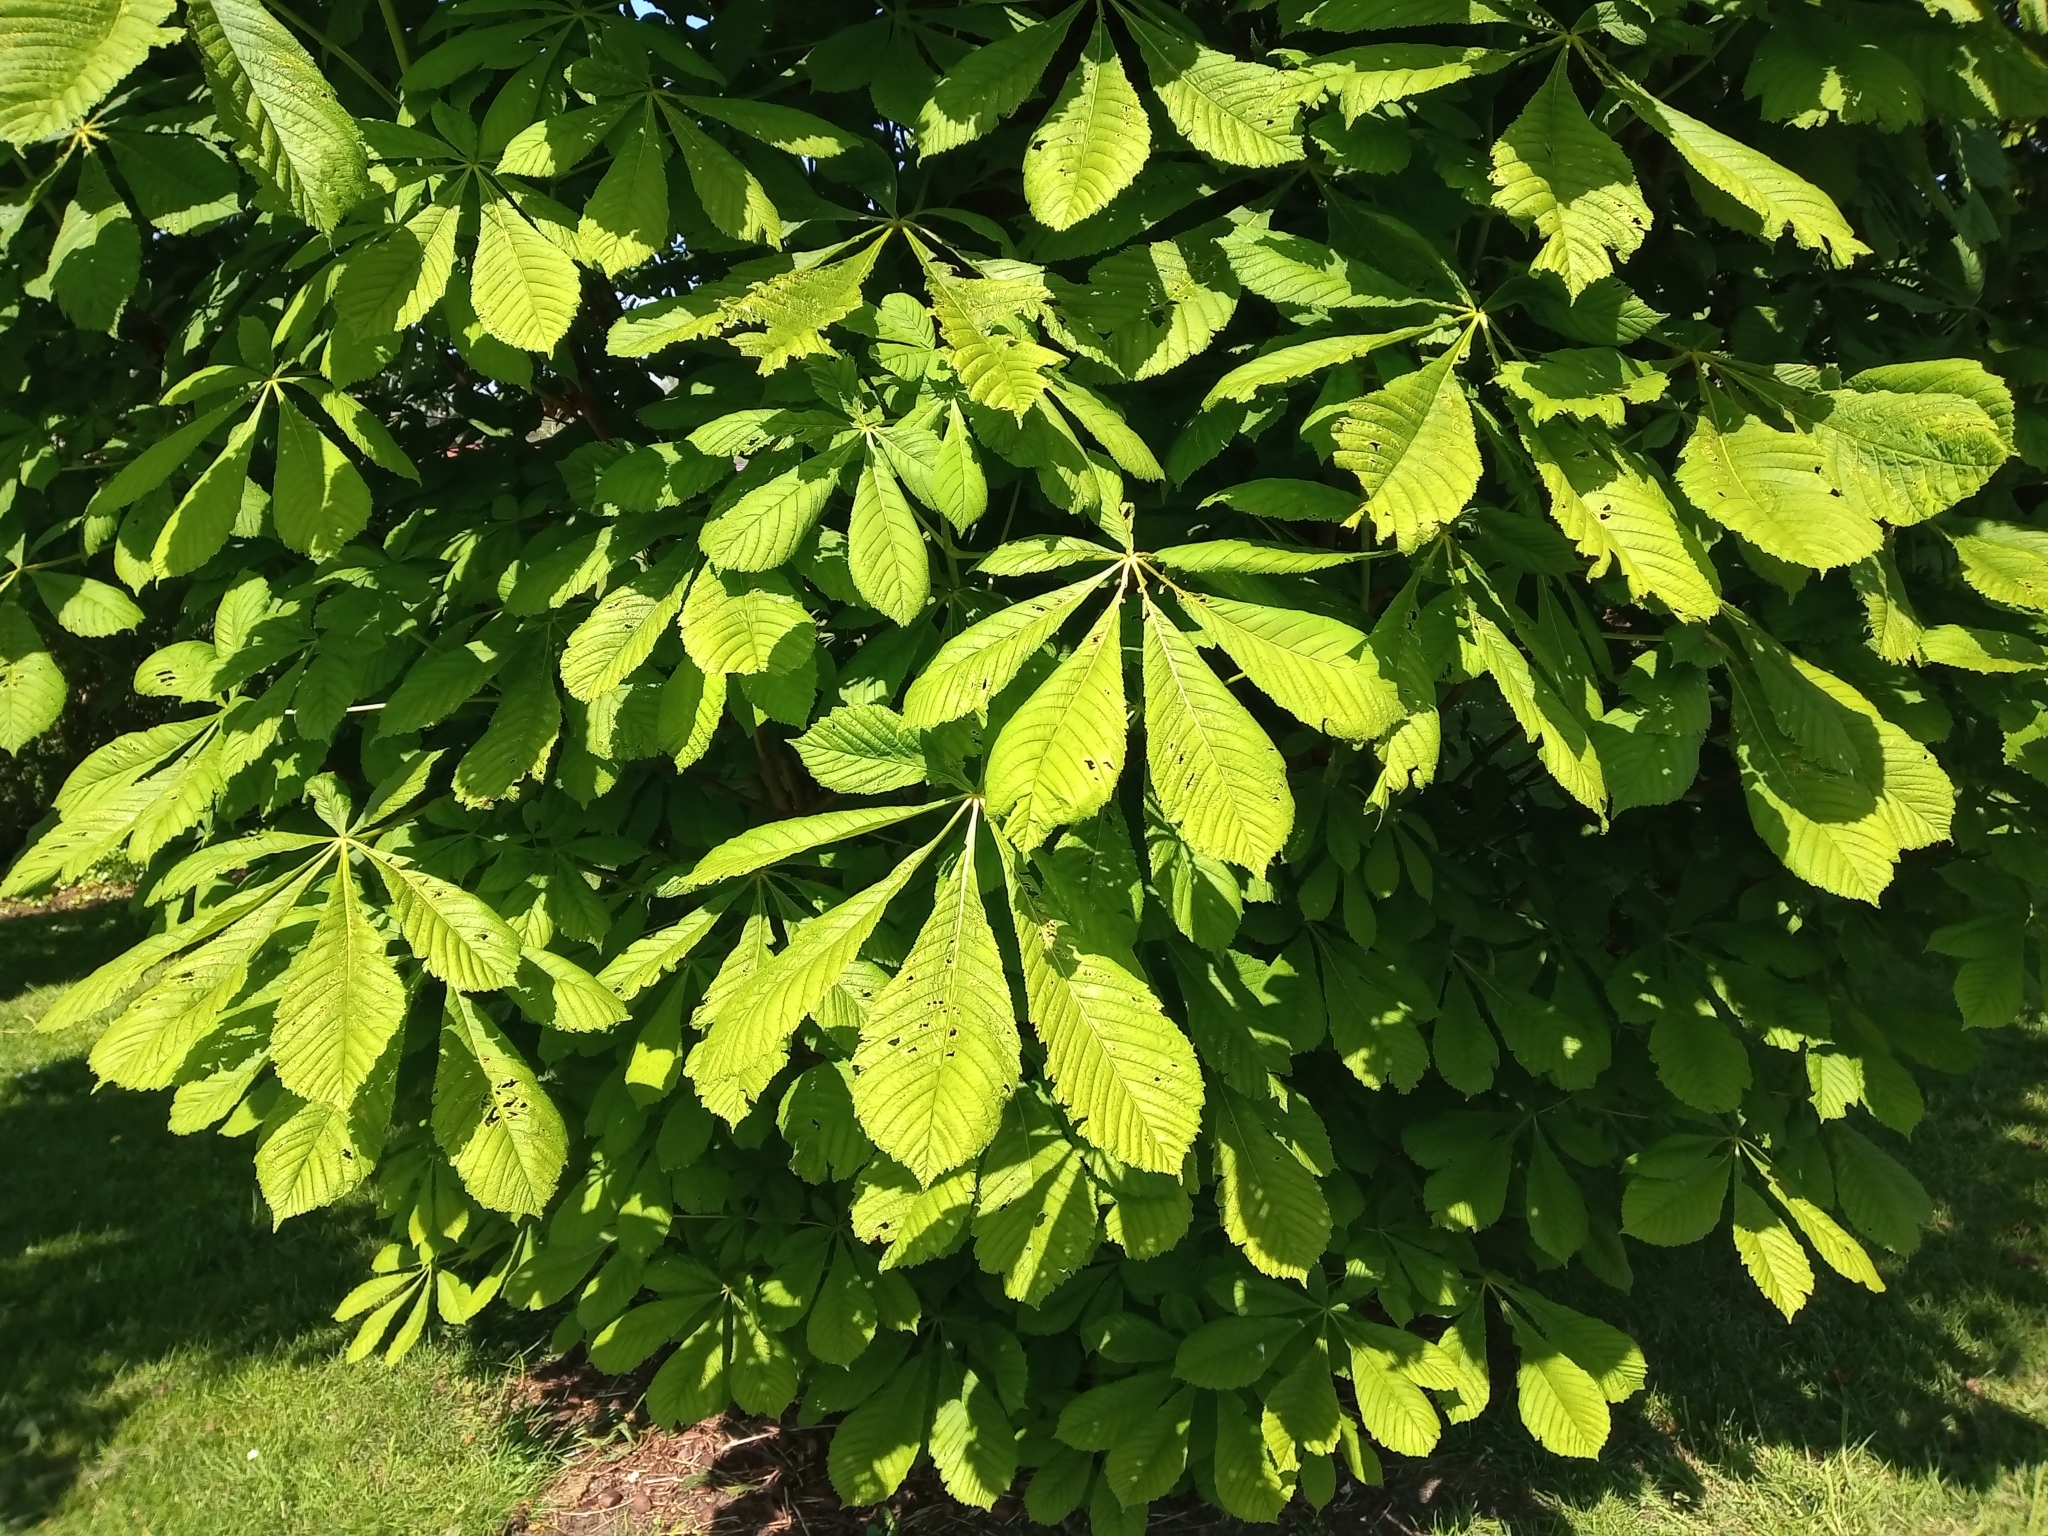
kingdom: Plantae
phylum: Tracheophyta
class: Magnoliopsida
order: Sapindales
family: Sapindaceae
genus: Aesculus
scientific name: Aesculus hippocastanum
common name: Horse-chestnut
